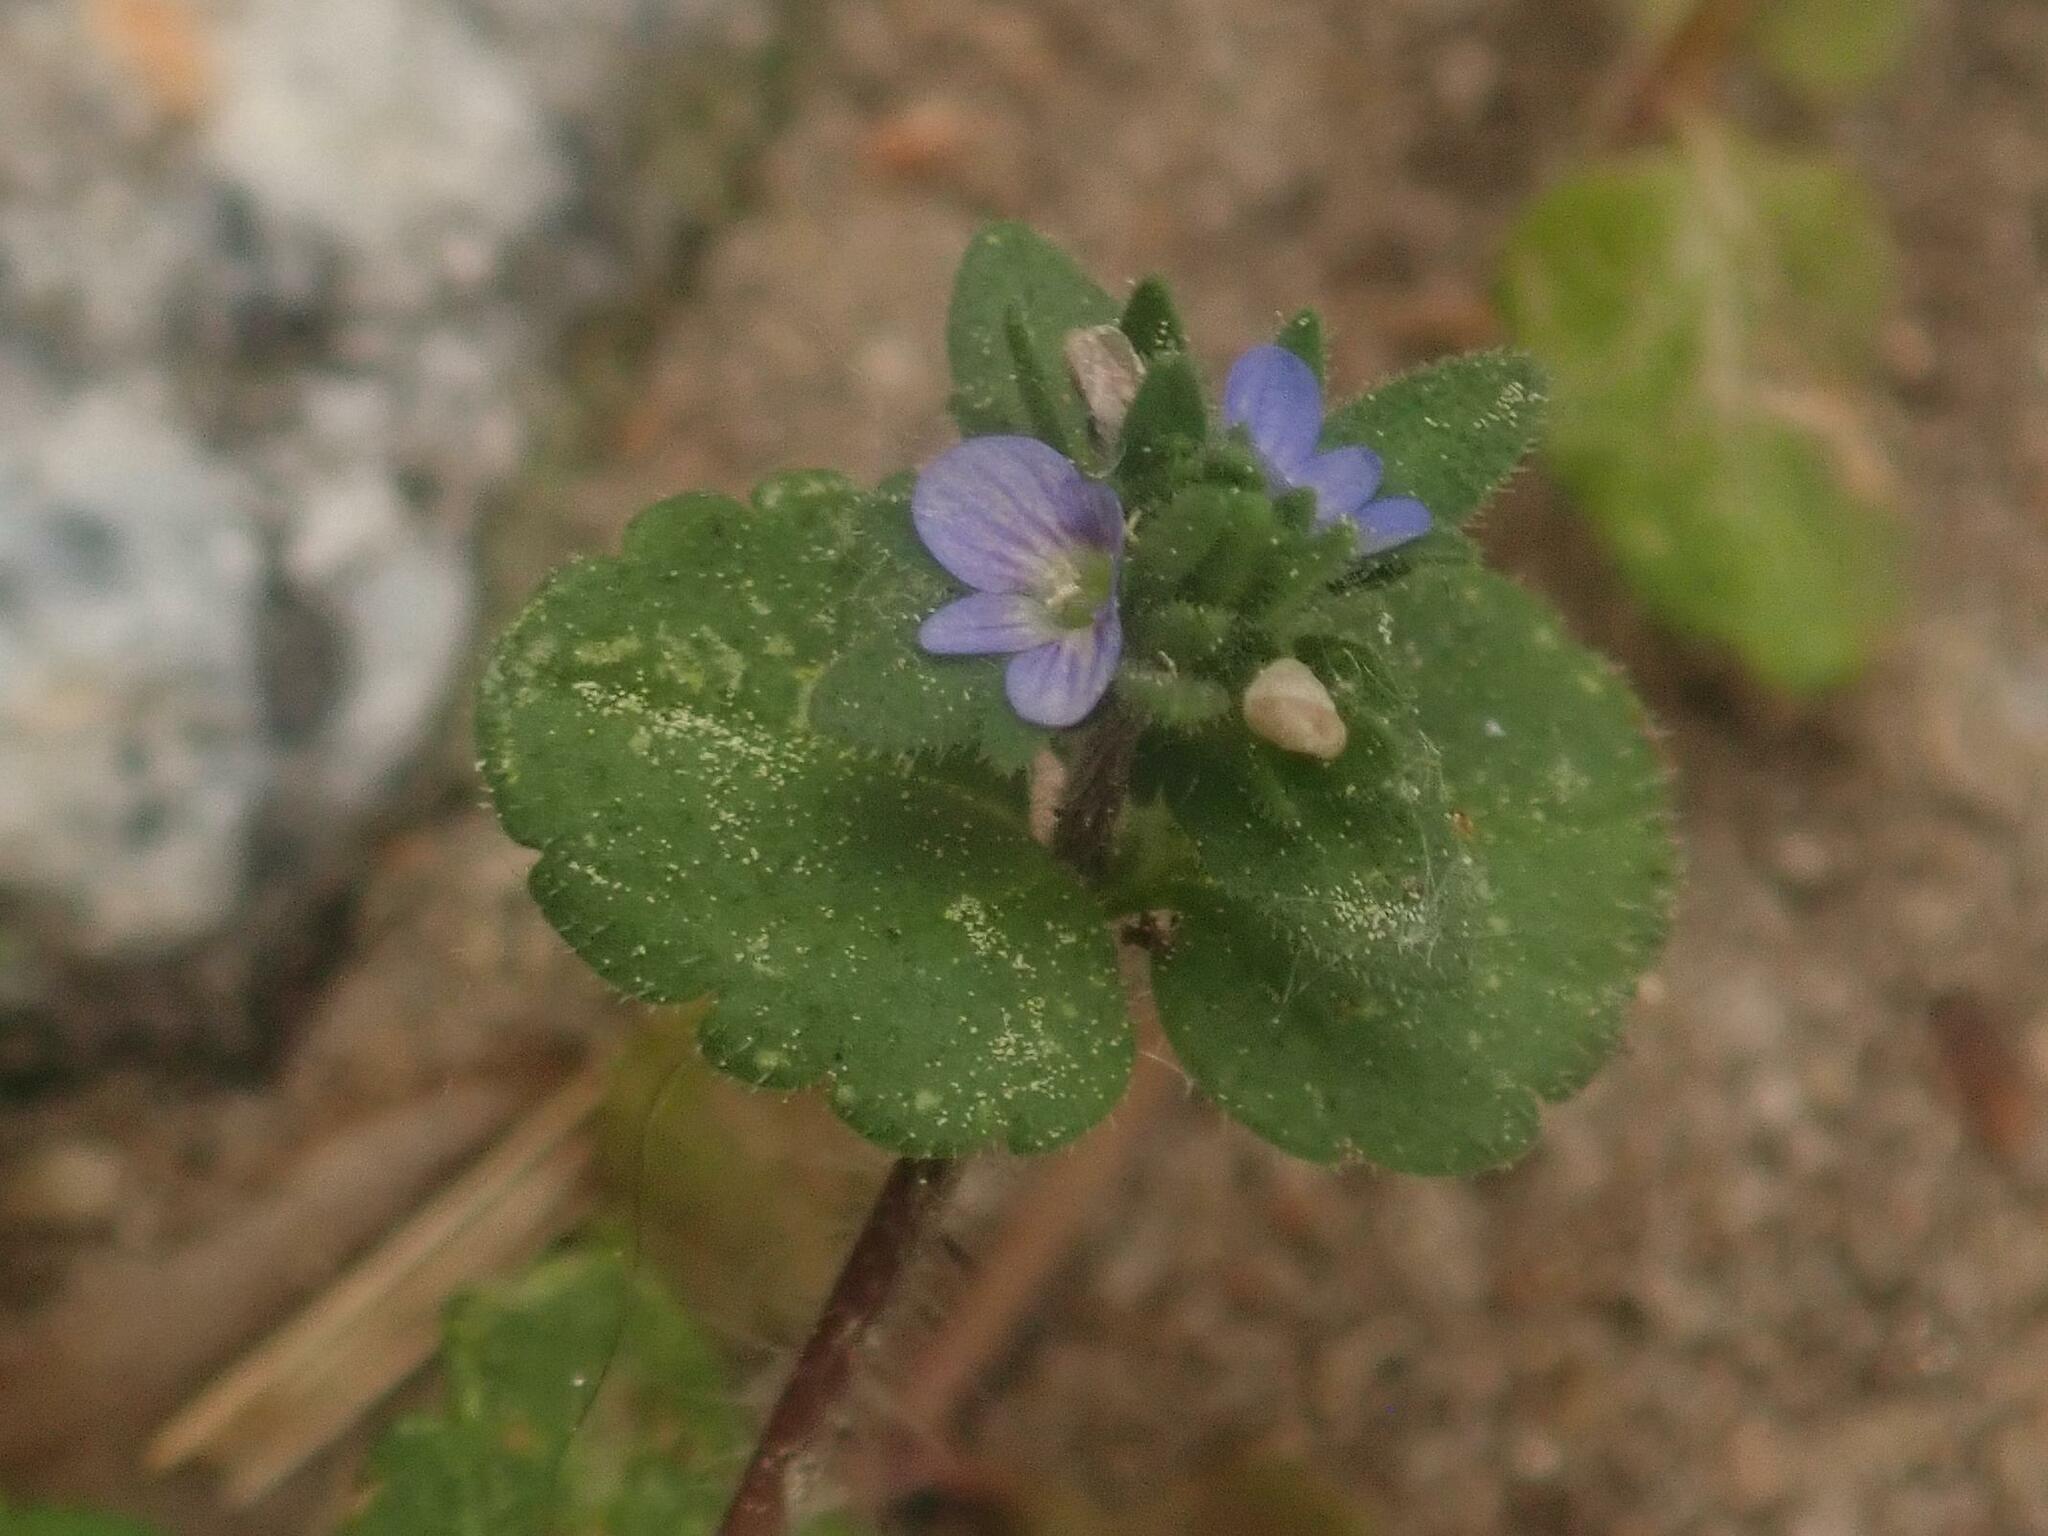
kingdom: Plantae
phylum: Tracheophyta
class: Magnoliopsida
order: Lamiales
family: Plantaginaceae
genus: Veronica
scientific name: Veronica arvensis
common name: Corn speedwell
